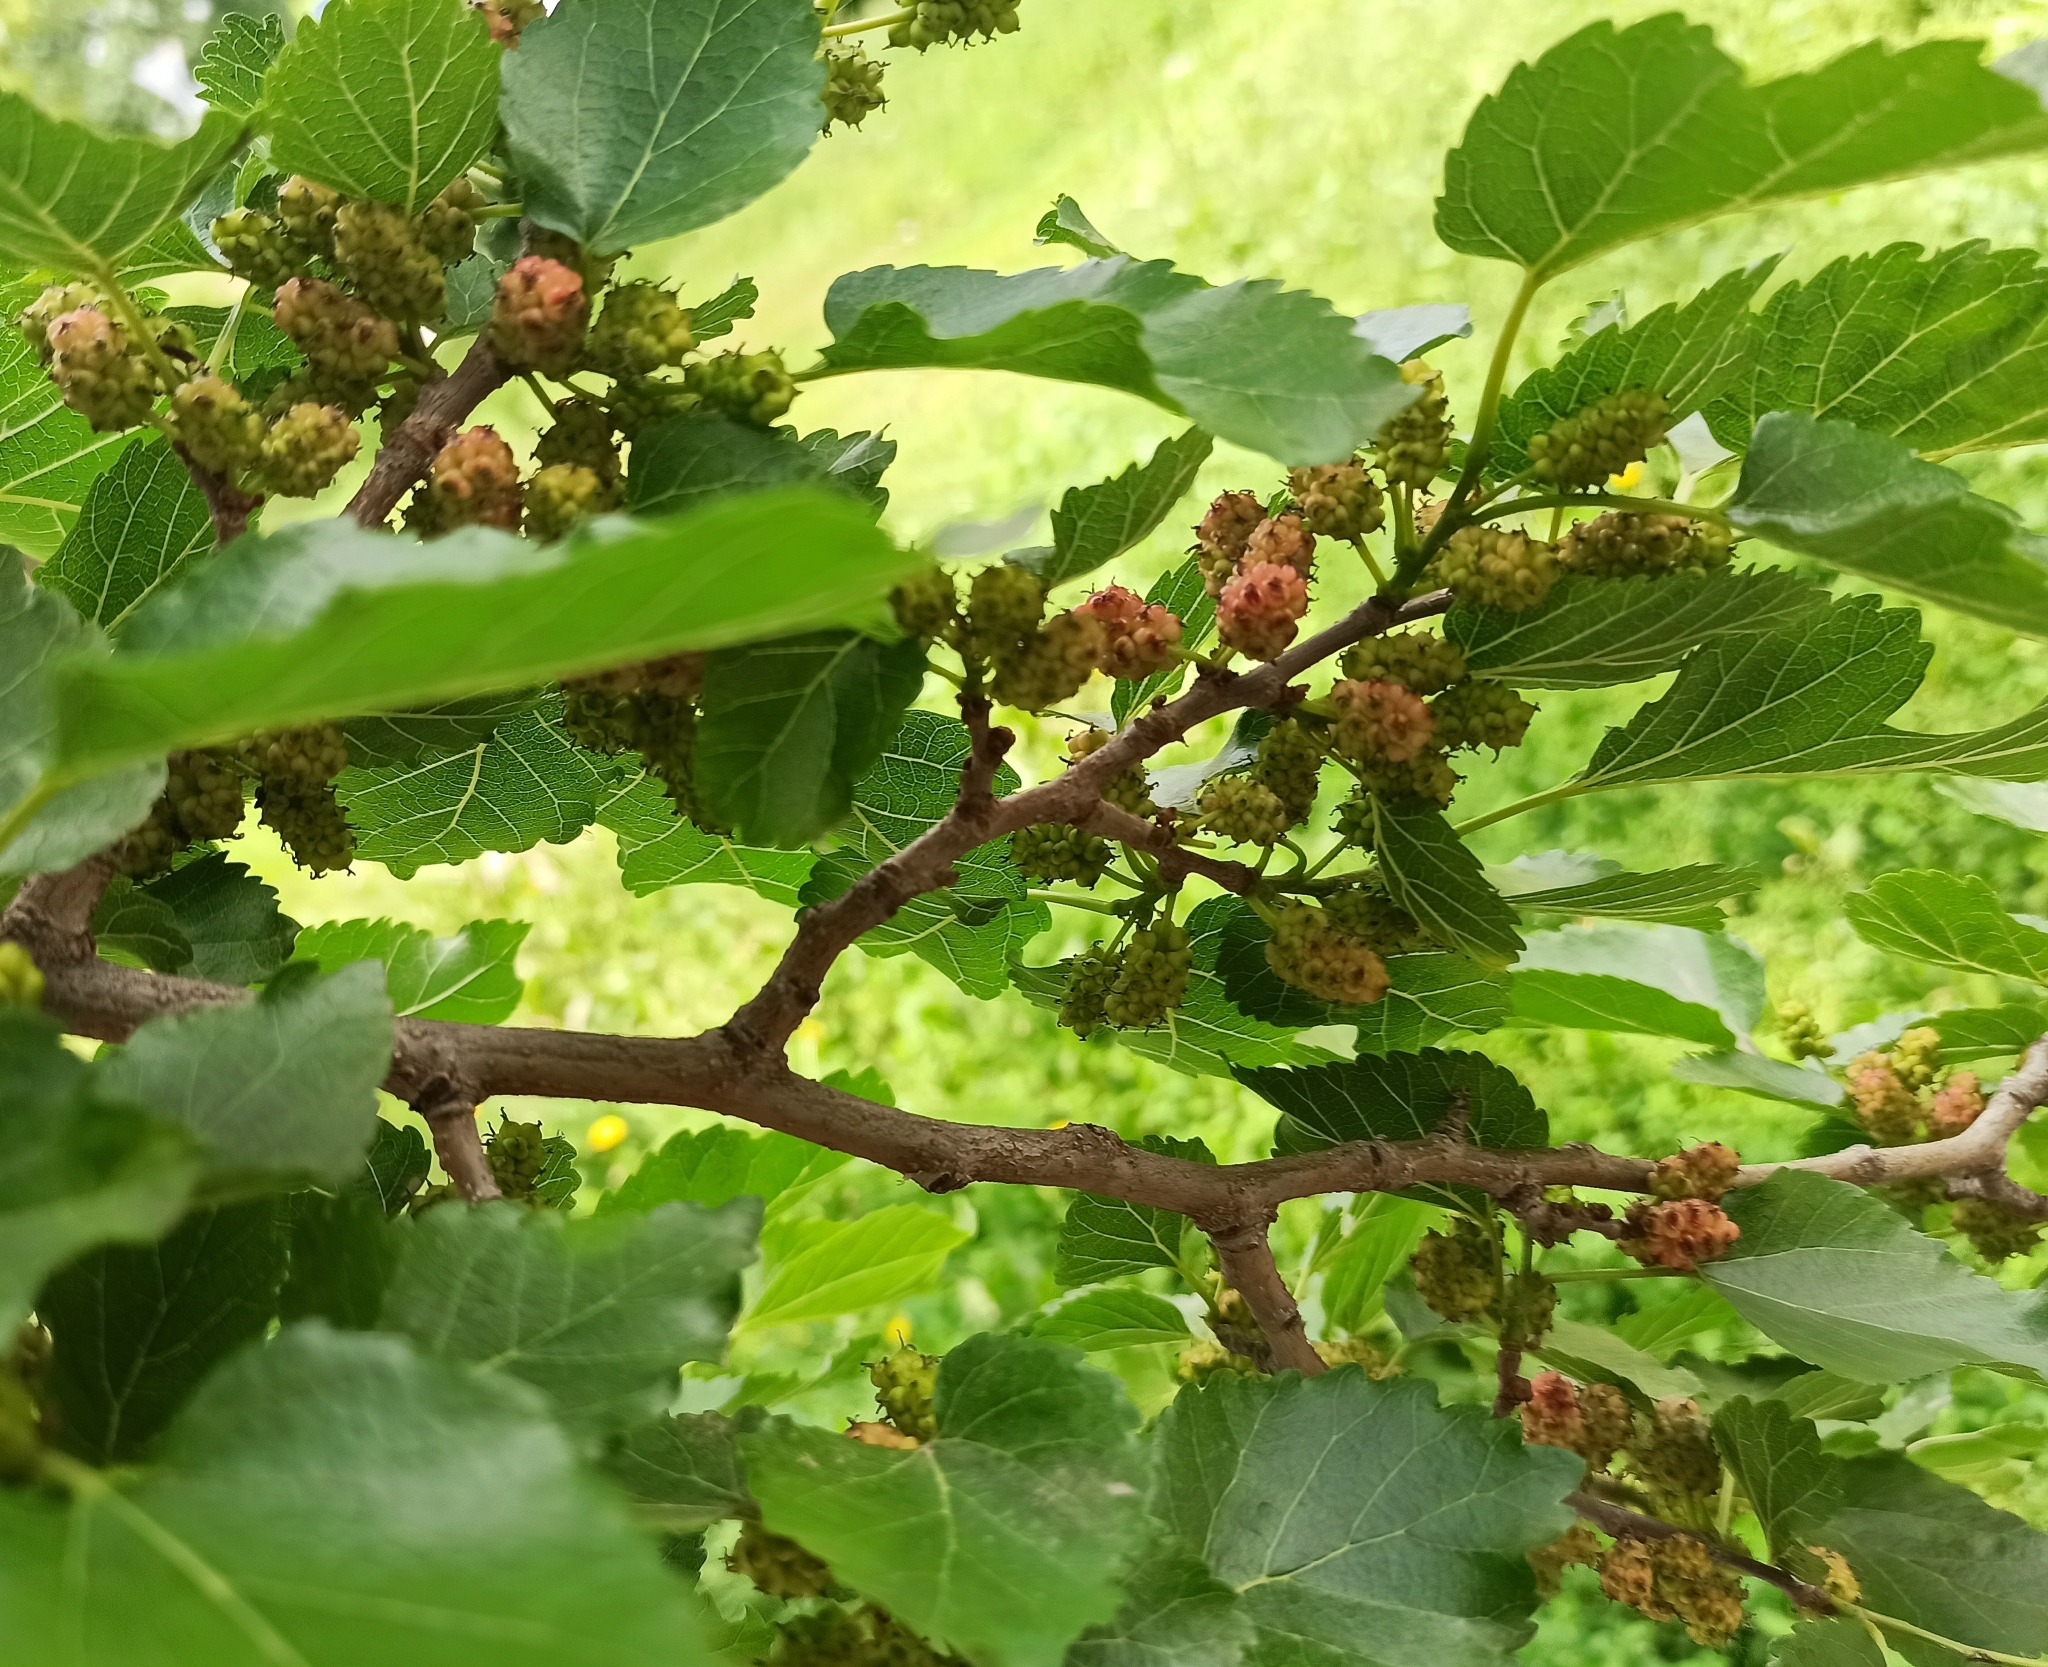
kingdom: Plantae
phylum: Tracheophyta
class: Magnoliopsida
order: Rosales
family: Moraceae
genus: Morus
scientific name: Morus alba
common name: White mulberry
